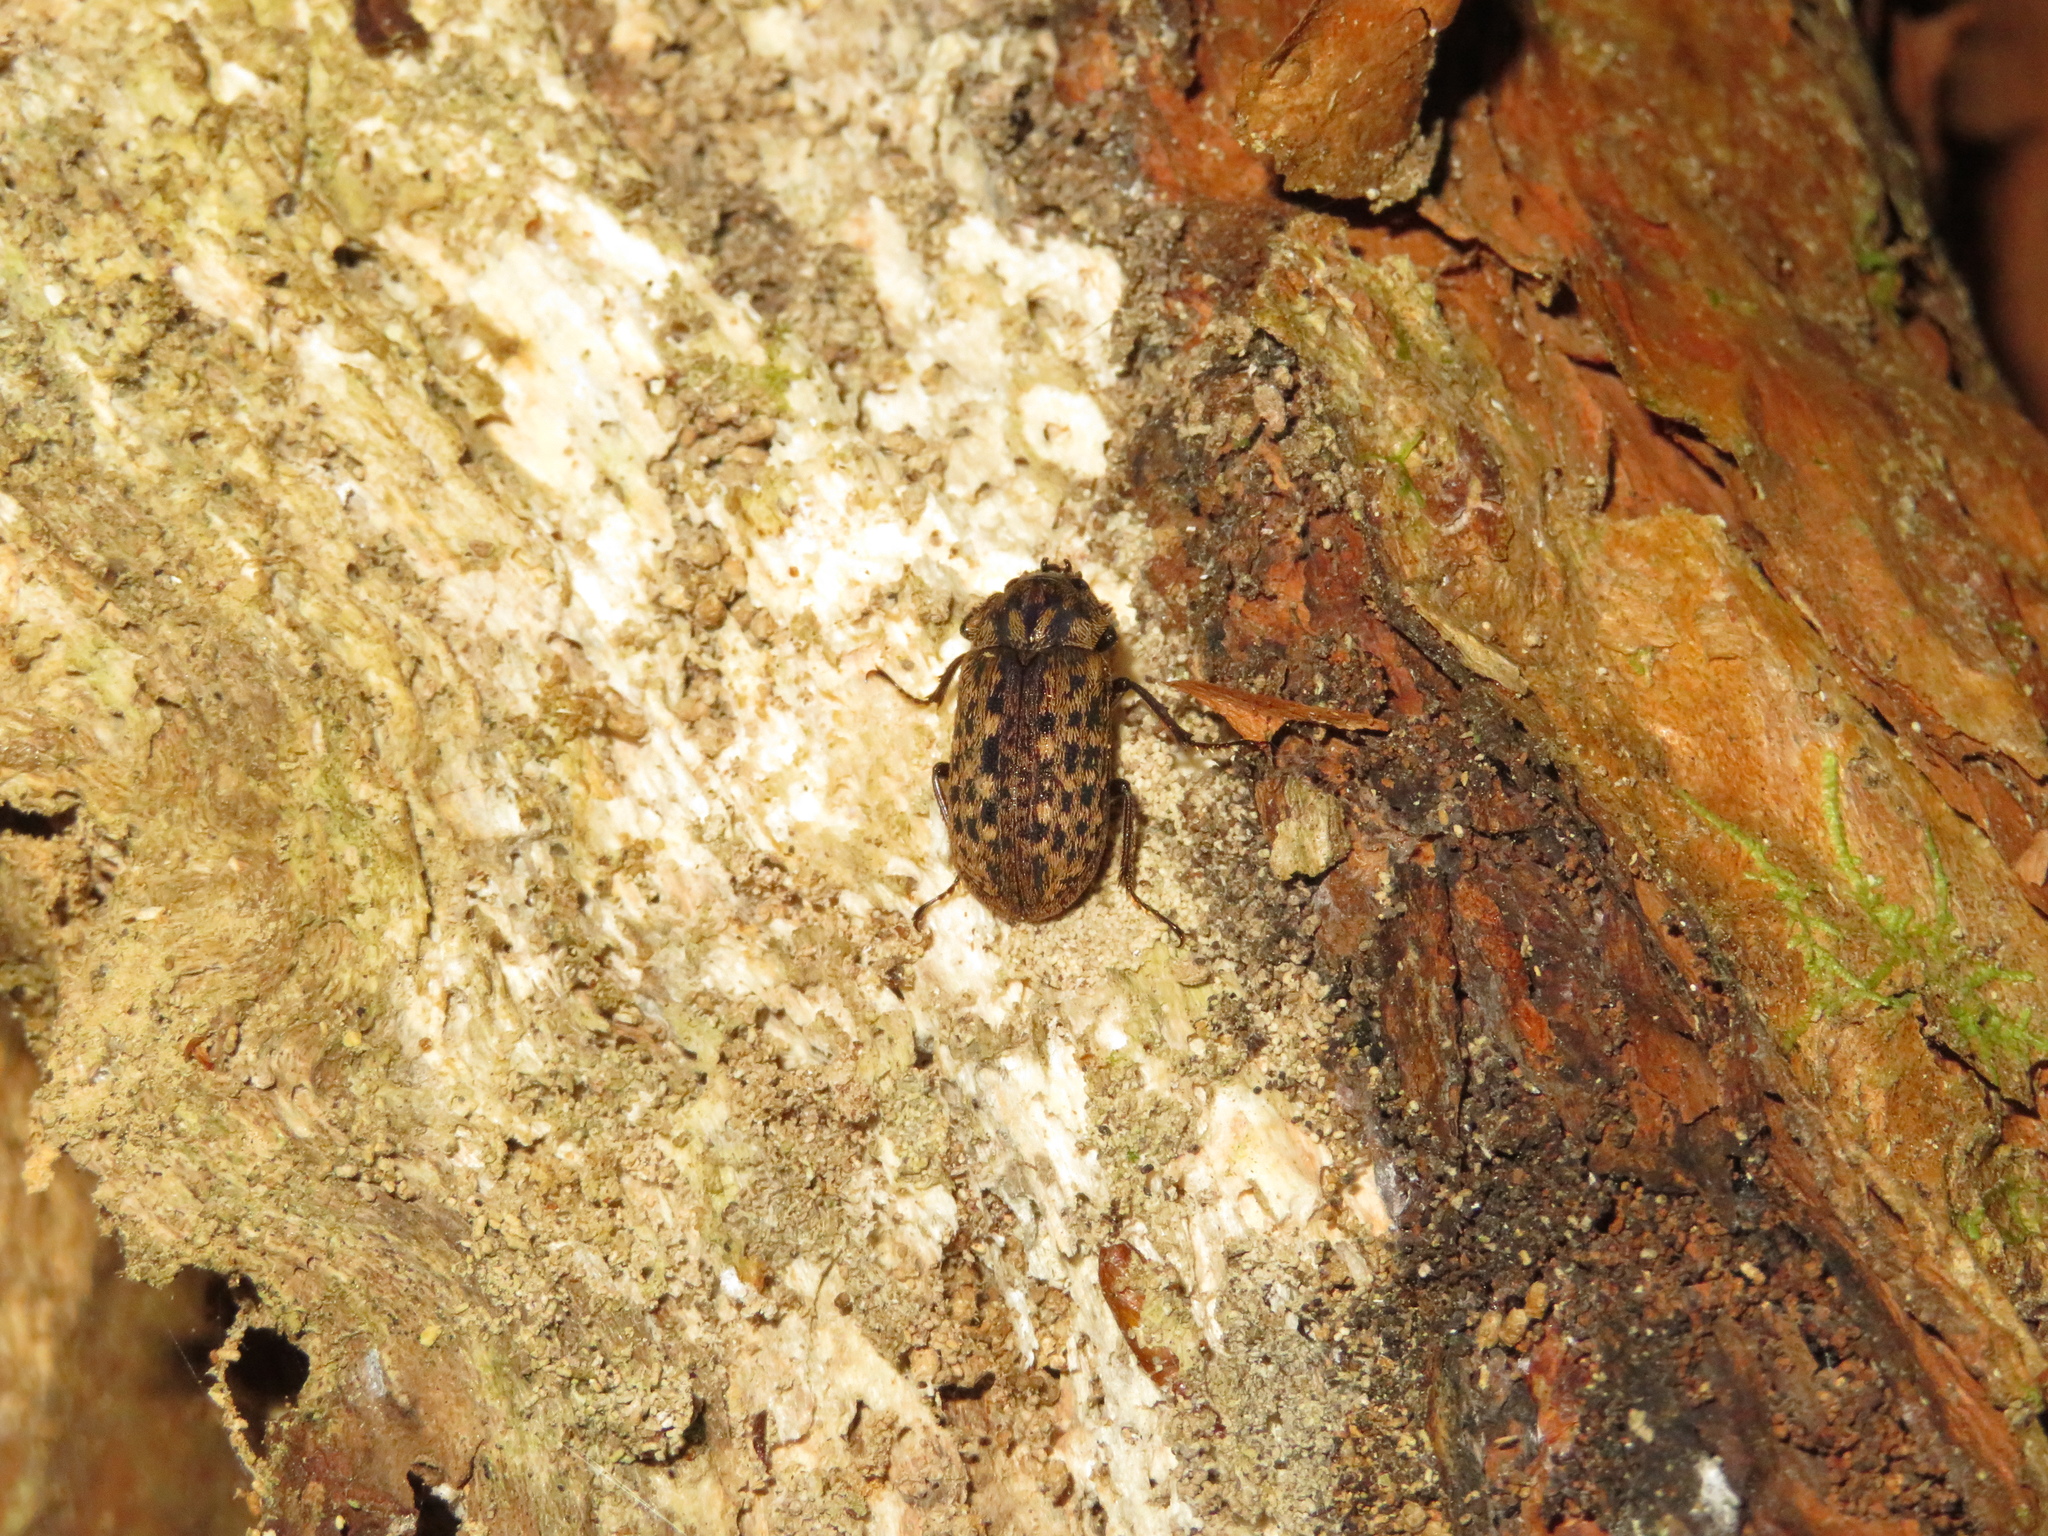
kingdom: Animalia
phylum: Arthropoda
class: Insecta
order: Coleoptera
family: Lucanidae
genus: Mitophyllus
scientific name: Mitophyllus parrianus
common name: Parry's stag beetle
